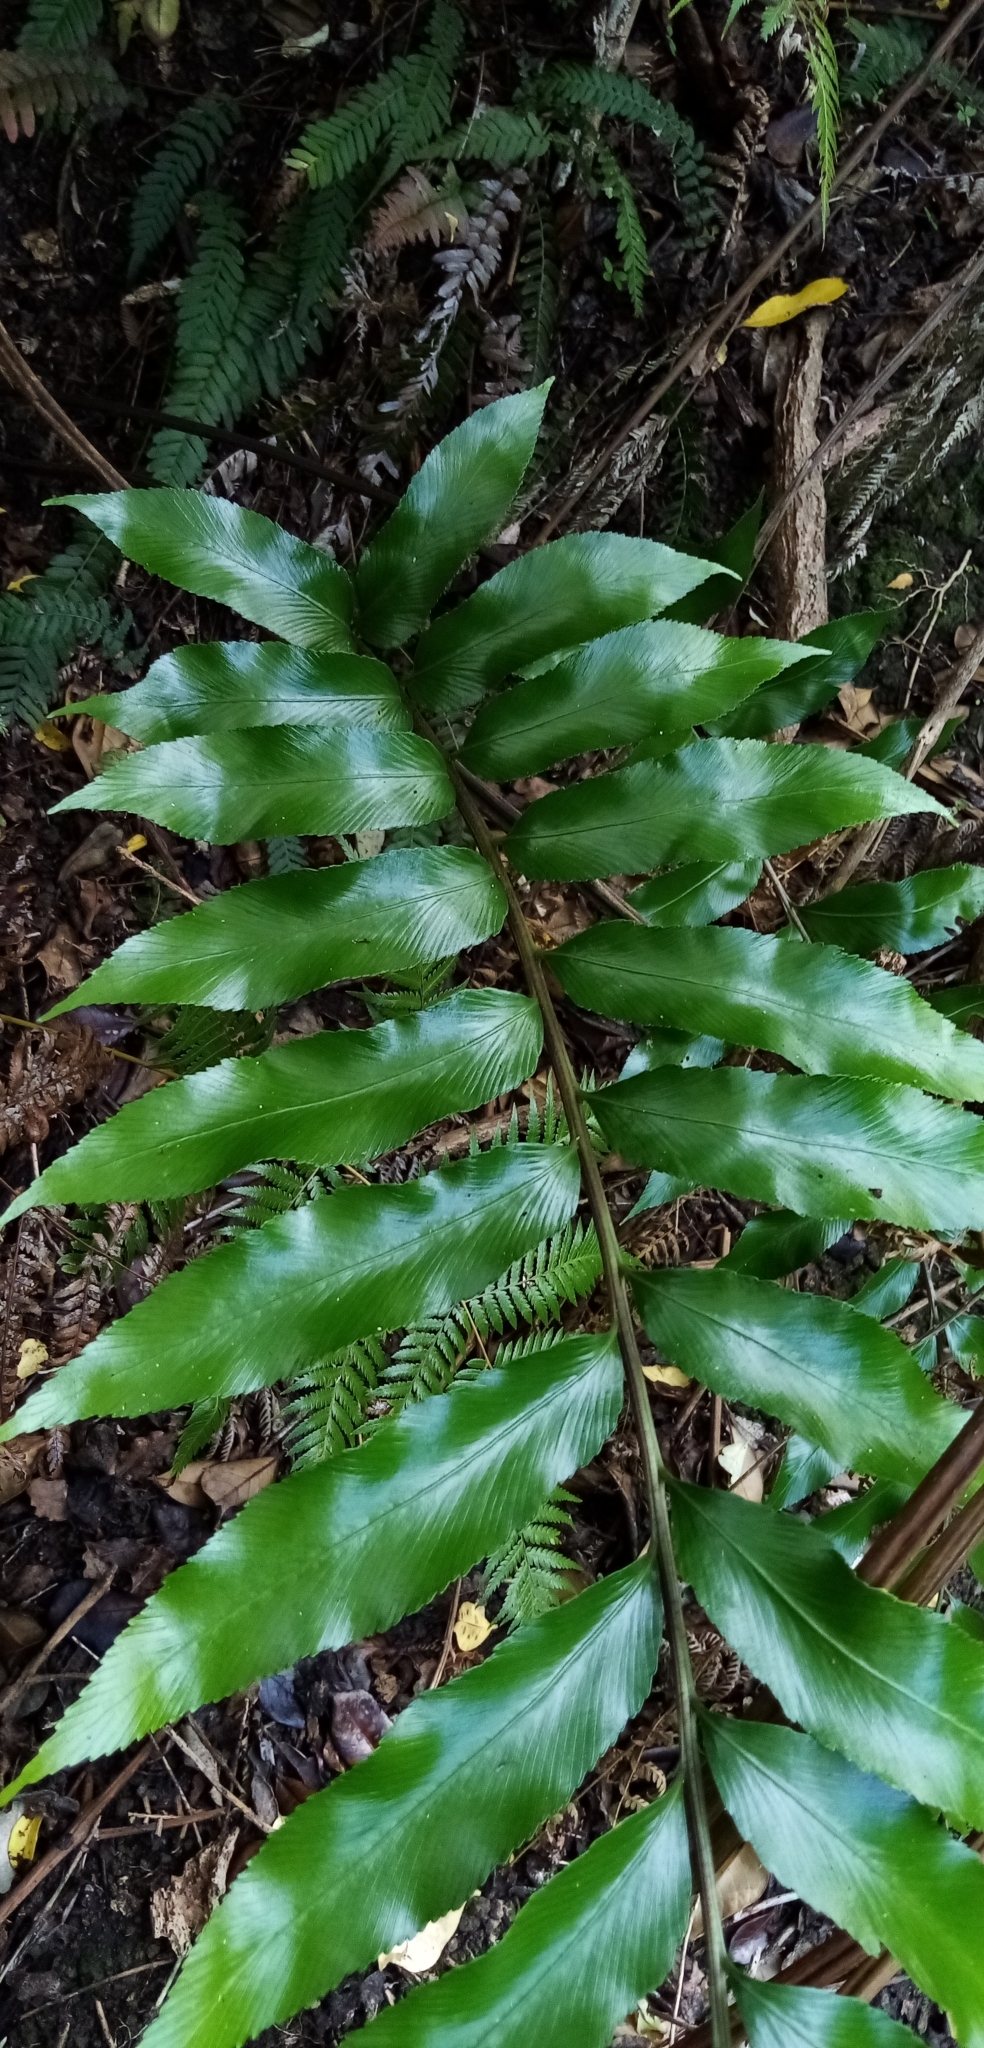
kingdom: Plantae
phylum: Tracheophyta
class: Polypodiopsida
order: Polypodiales
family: Aspleniaceae
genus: Asplenium
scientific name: Asplenium oblongifolium
